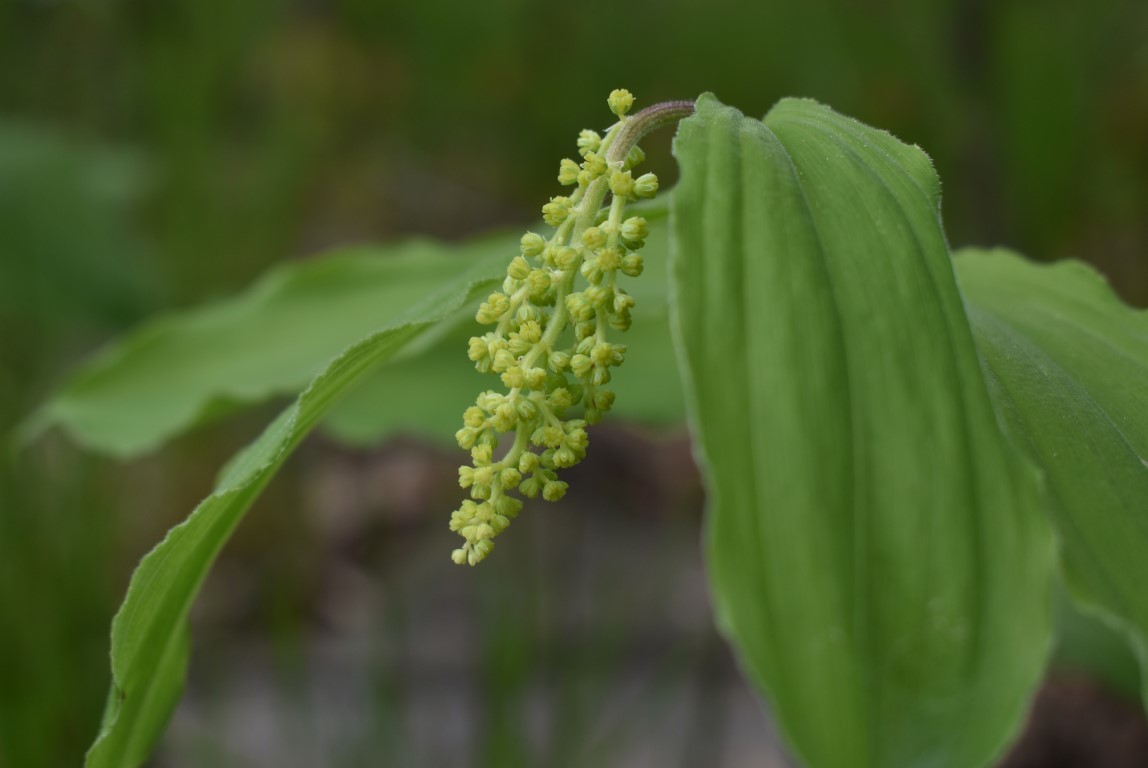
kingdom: Plantae
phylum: Tracheophyta
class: Liliopsida
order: Asparagales
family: Asparagaceae
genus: Maianthemum
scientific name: Maianthemum racemosum
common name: False spikenard
